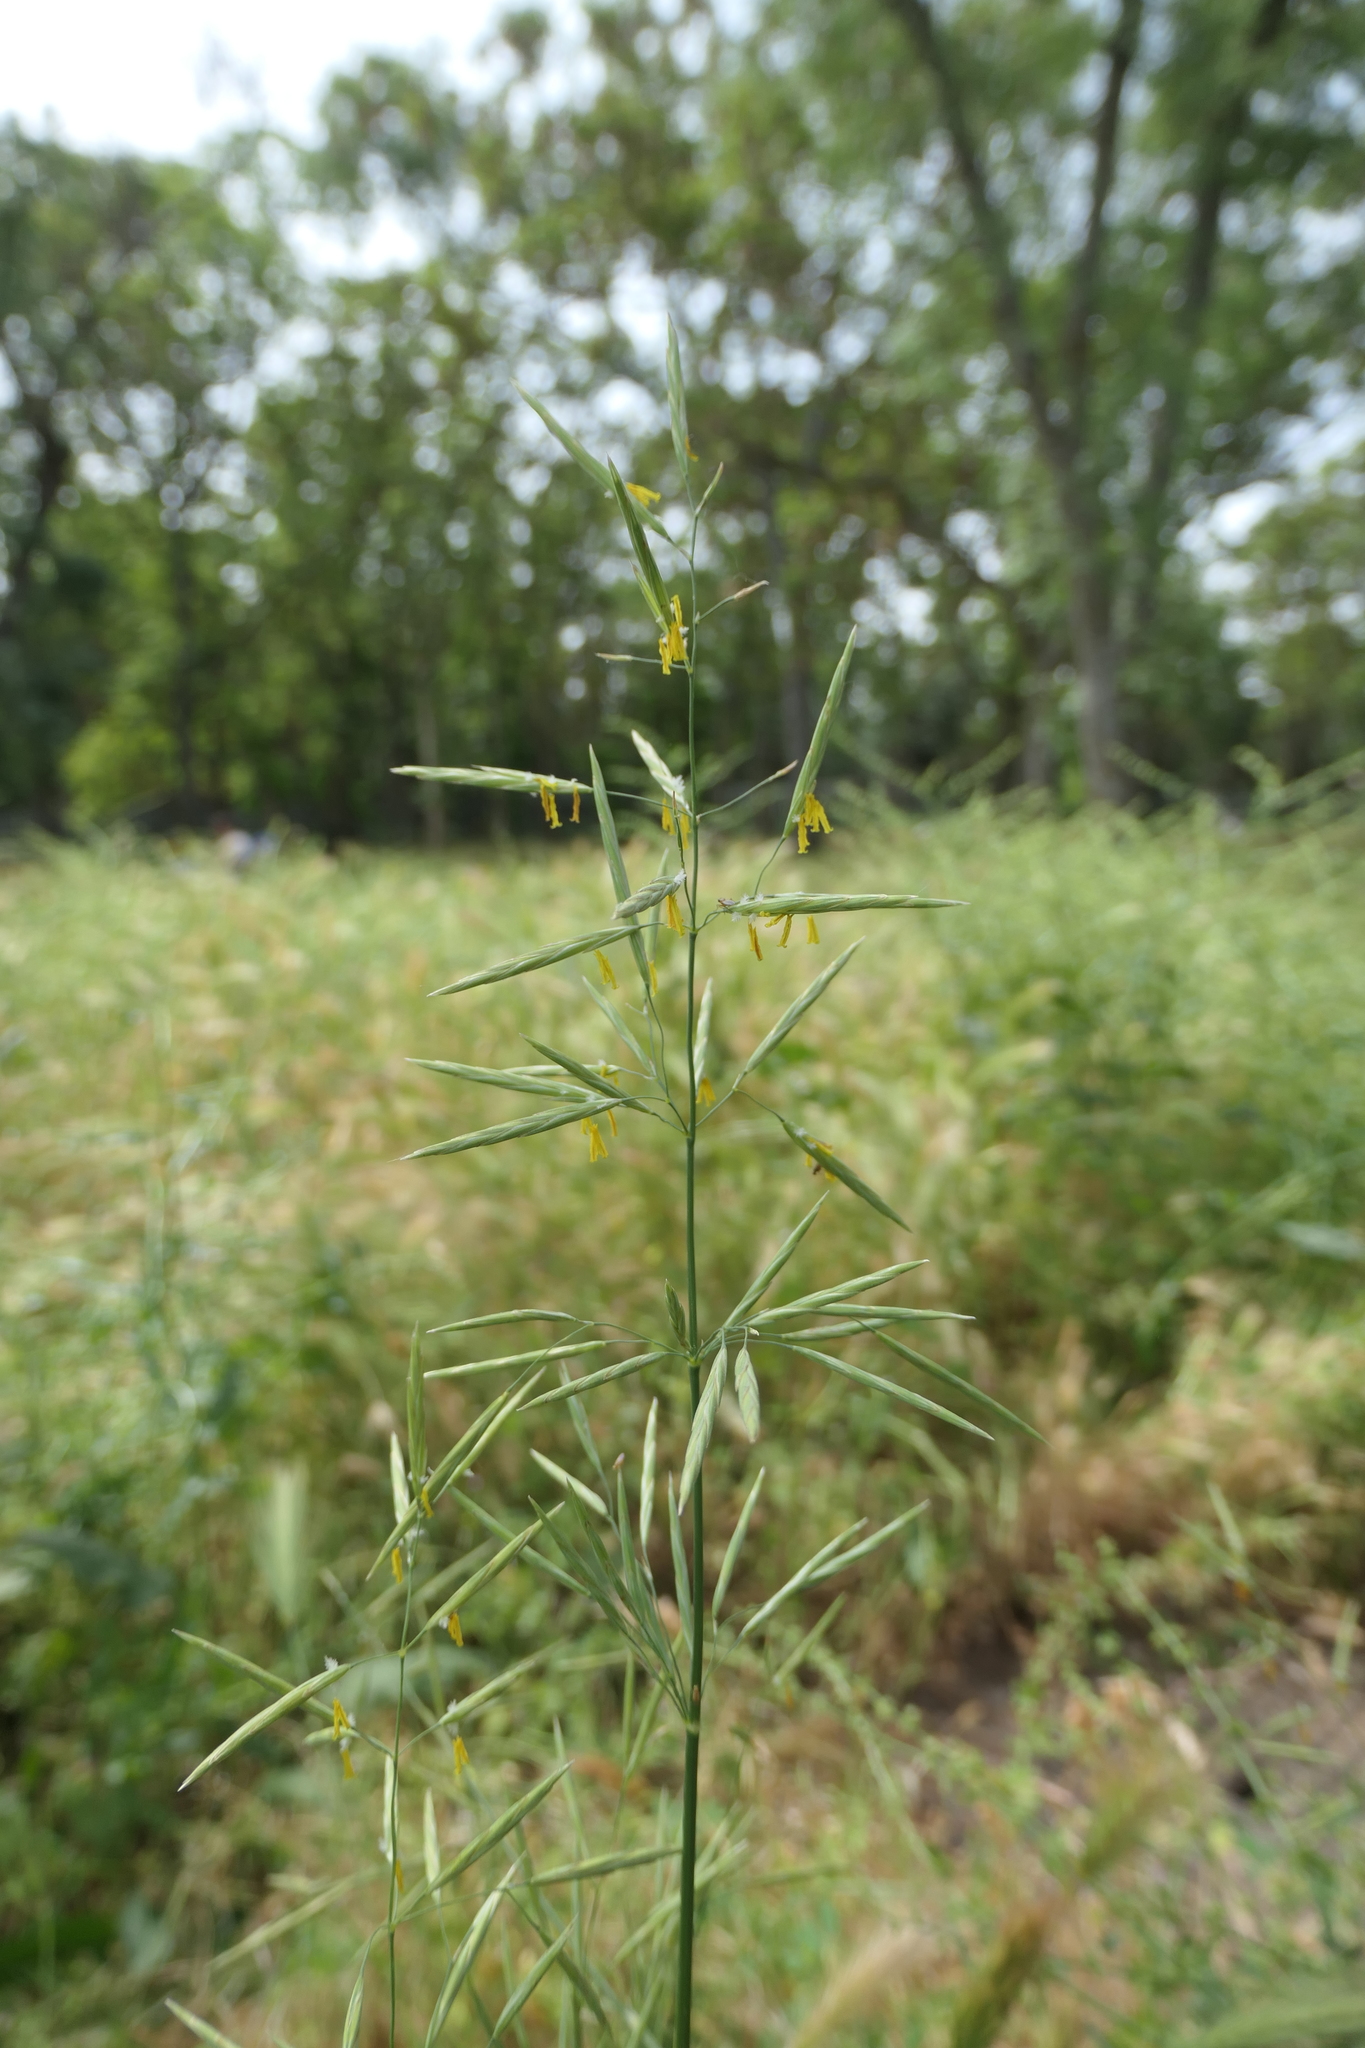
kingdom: Plantae
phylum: Tracheophyta
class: Liliopsida
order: Poales
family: Poaceae
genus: Bromus
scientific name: Bromus inermis
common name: Smooth brome
